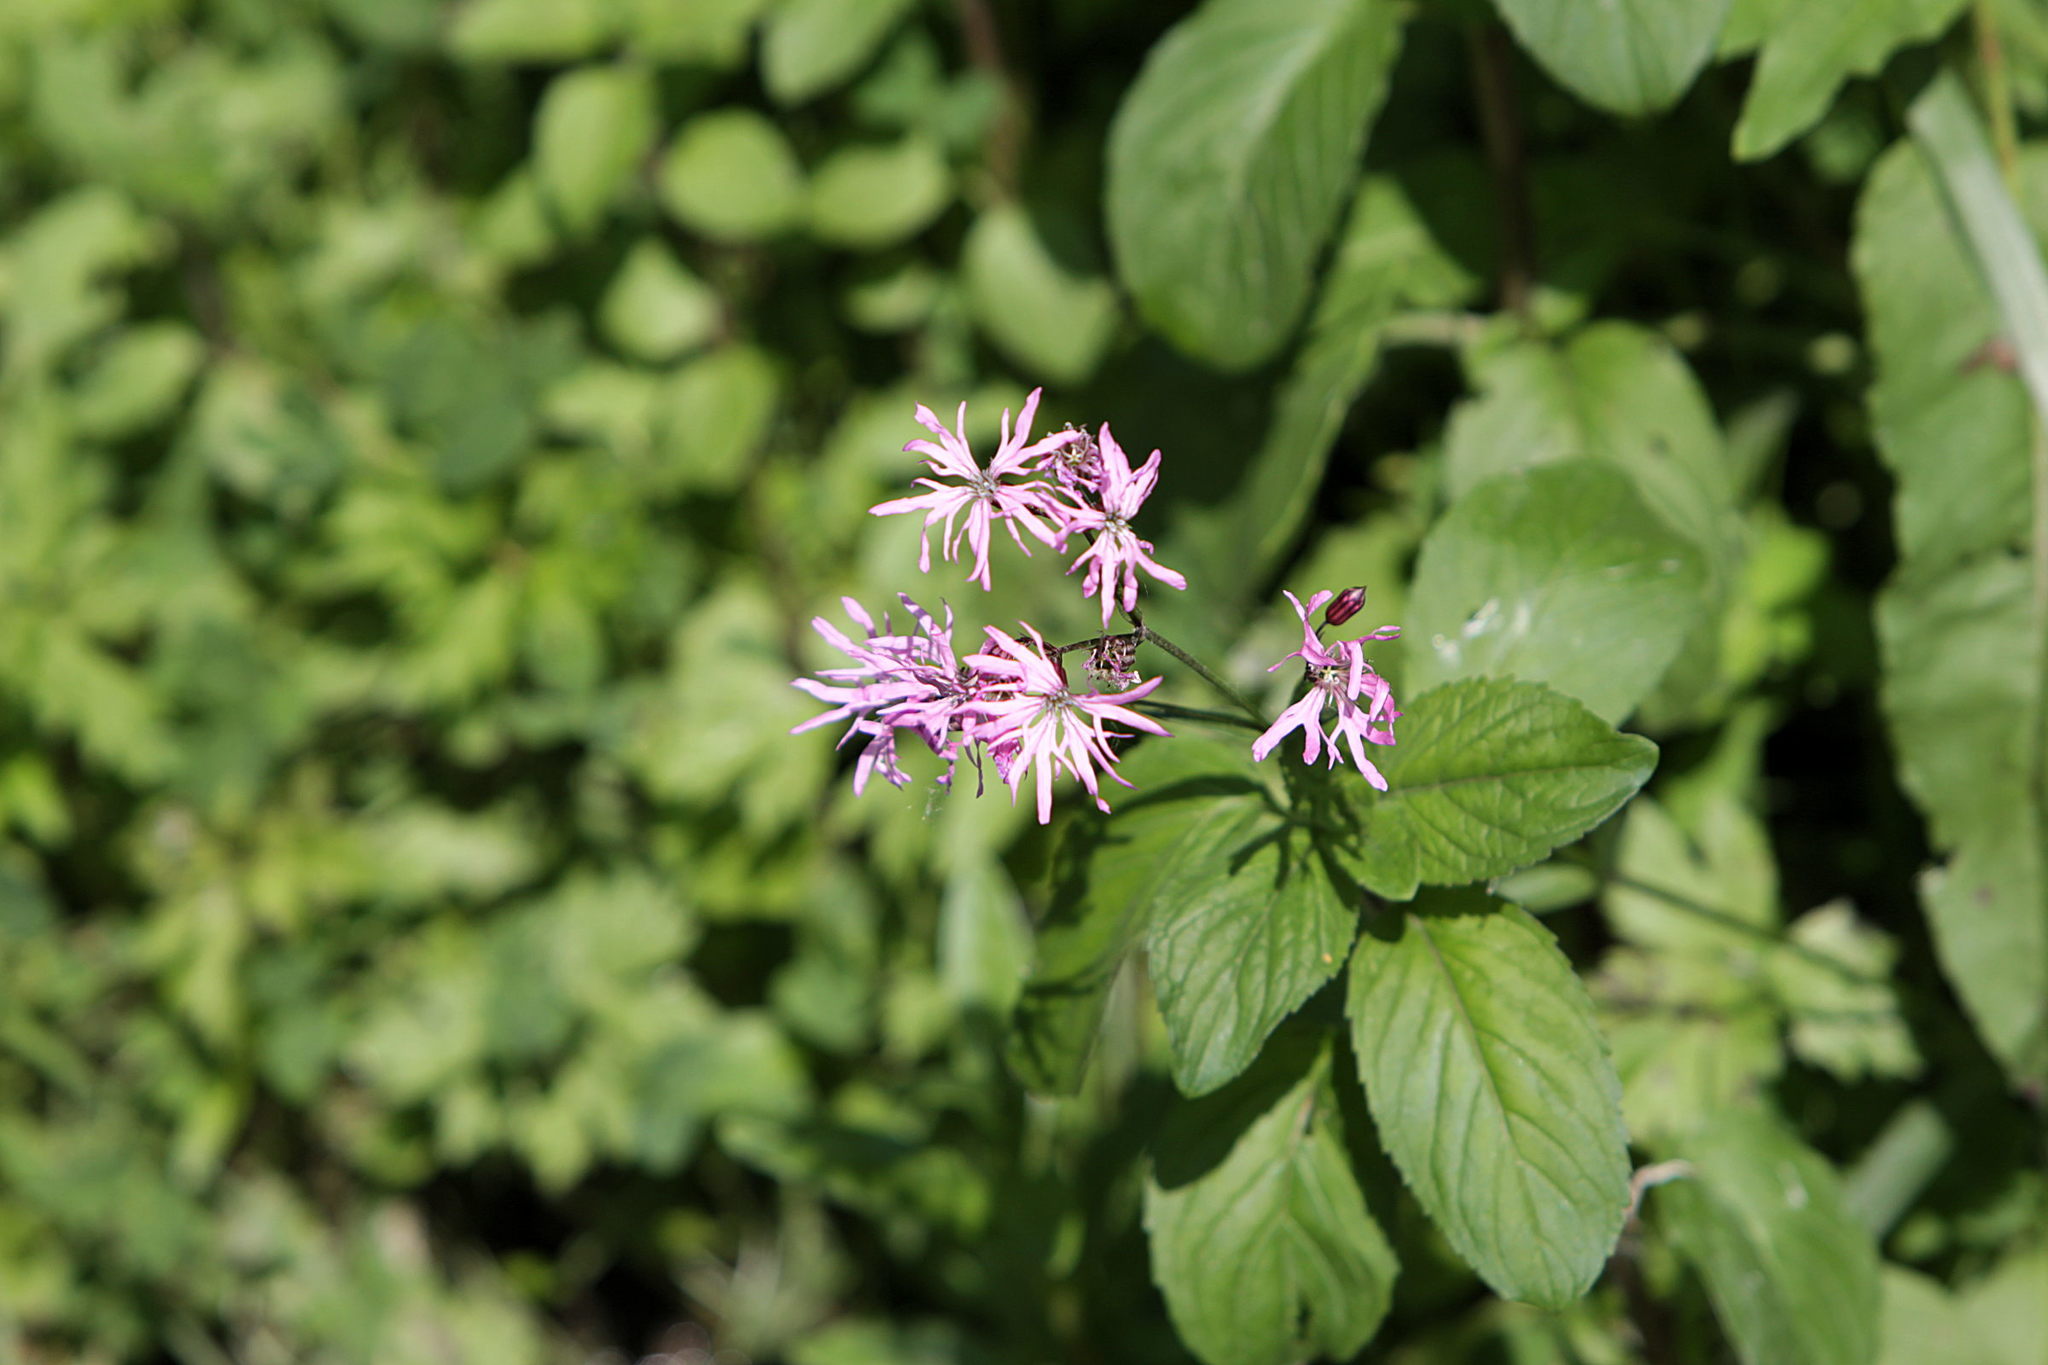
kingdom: Plantae
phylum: Tracheophyta
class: Magnoliopsida
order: Caryophyllales
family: Caryophyllaceae
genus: Silene
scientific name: Silene flos-cuculi
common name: Ragged-robin
